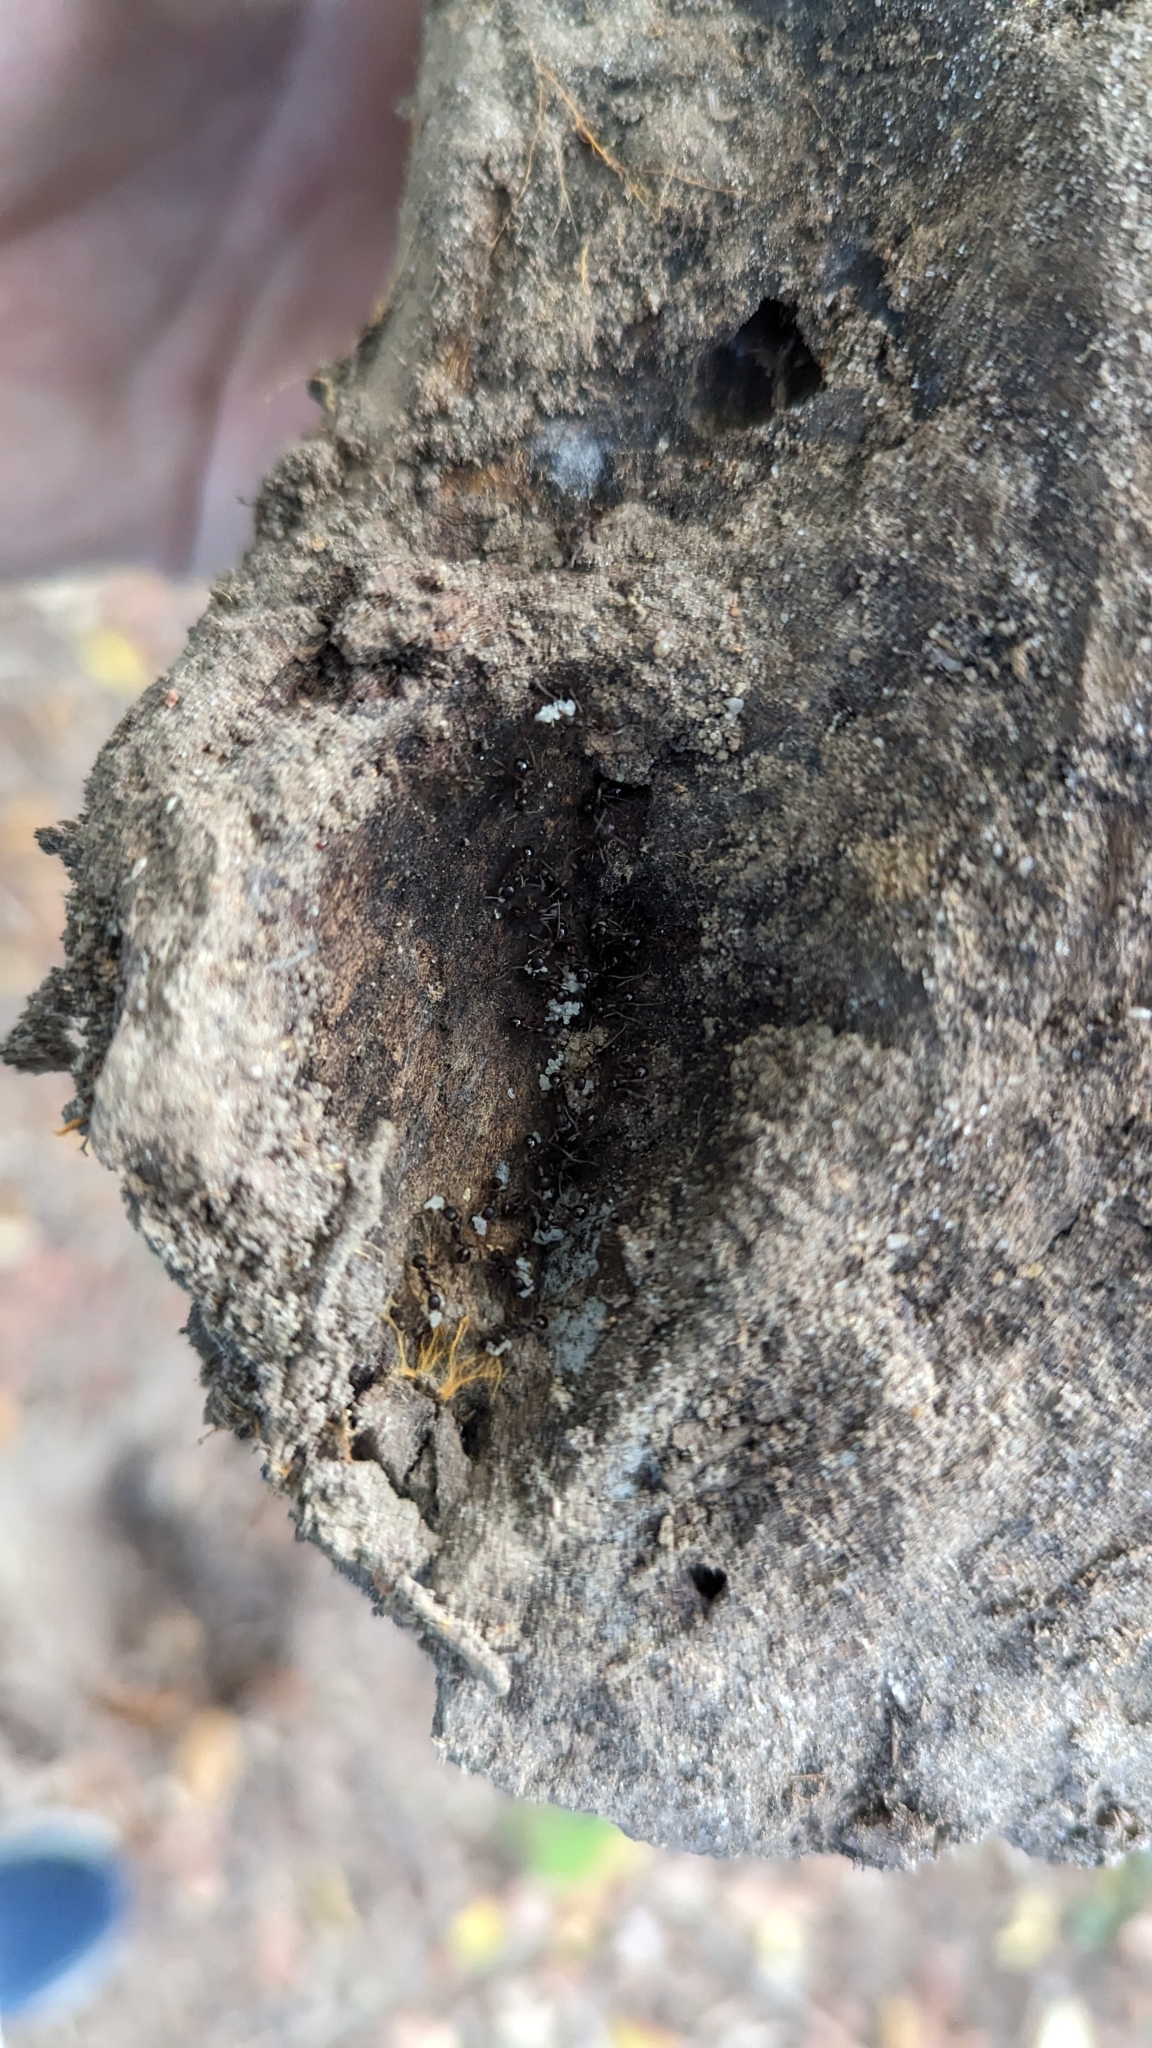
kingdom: Animalia
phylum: Arthropoda
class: Insecta
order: Hymenoptera
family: Formicidae
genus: Aphaenogaster
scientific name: Aphaenogaster picea
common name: Pitch-black collared ant
